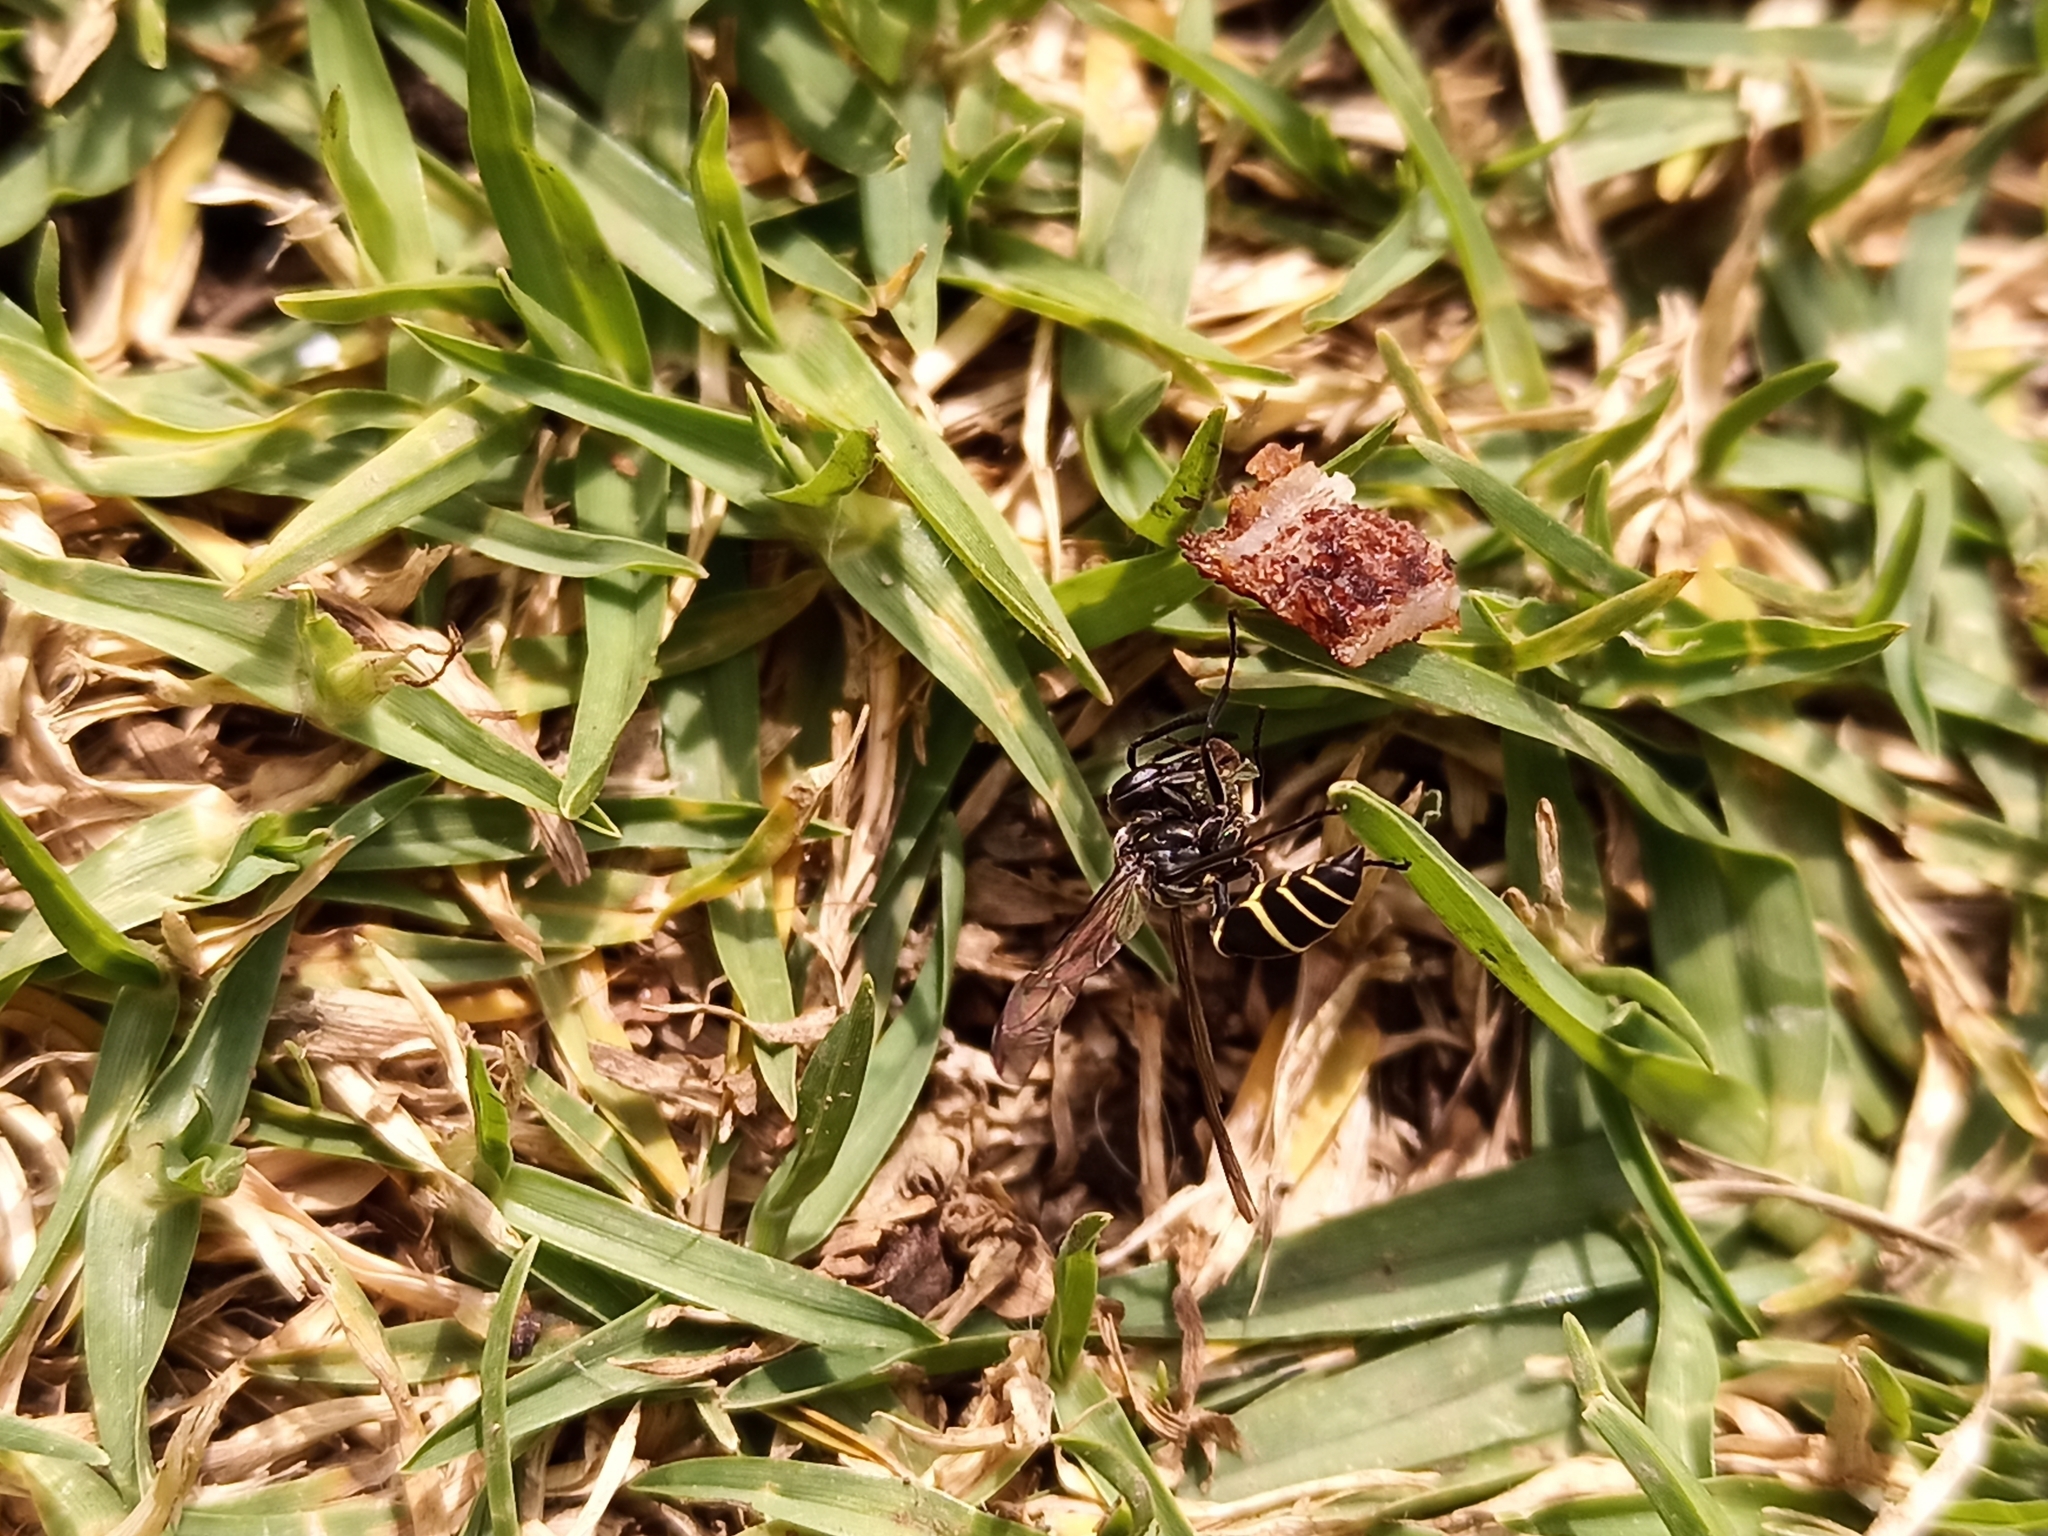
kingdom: Animalia
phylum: Arthropoda
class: Insecta
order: Hymenoptera
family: Vespidae
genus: Myrapetra
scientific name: Myrapetra
